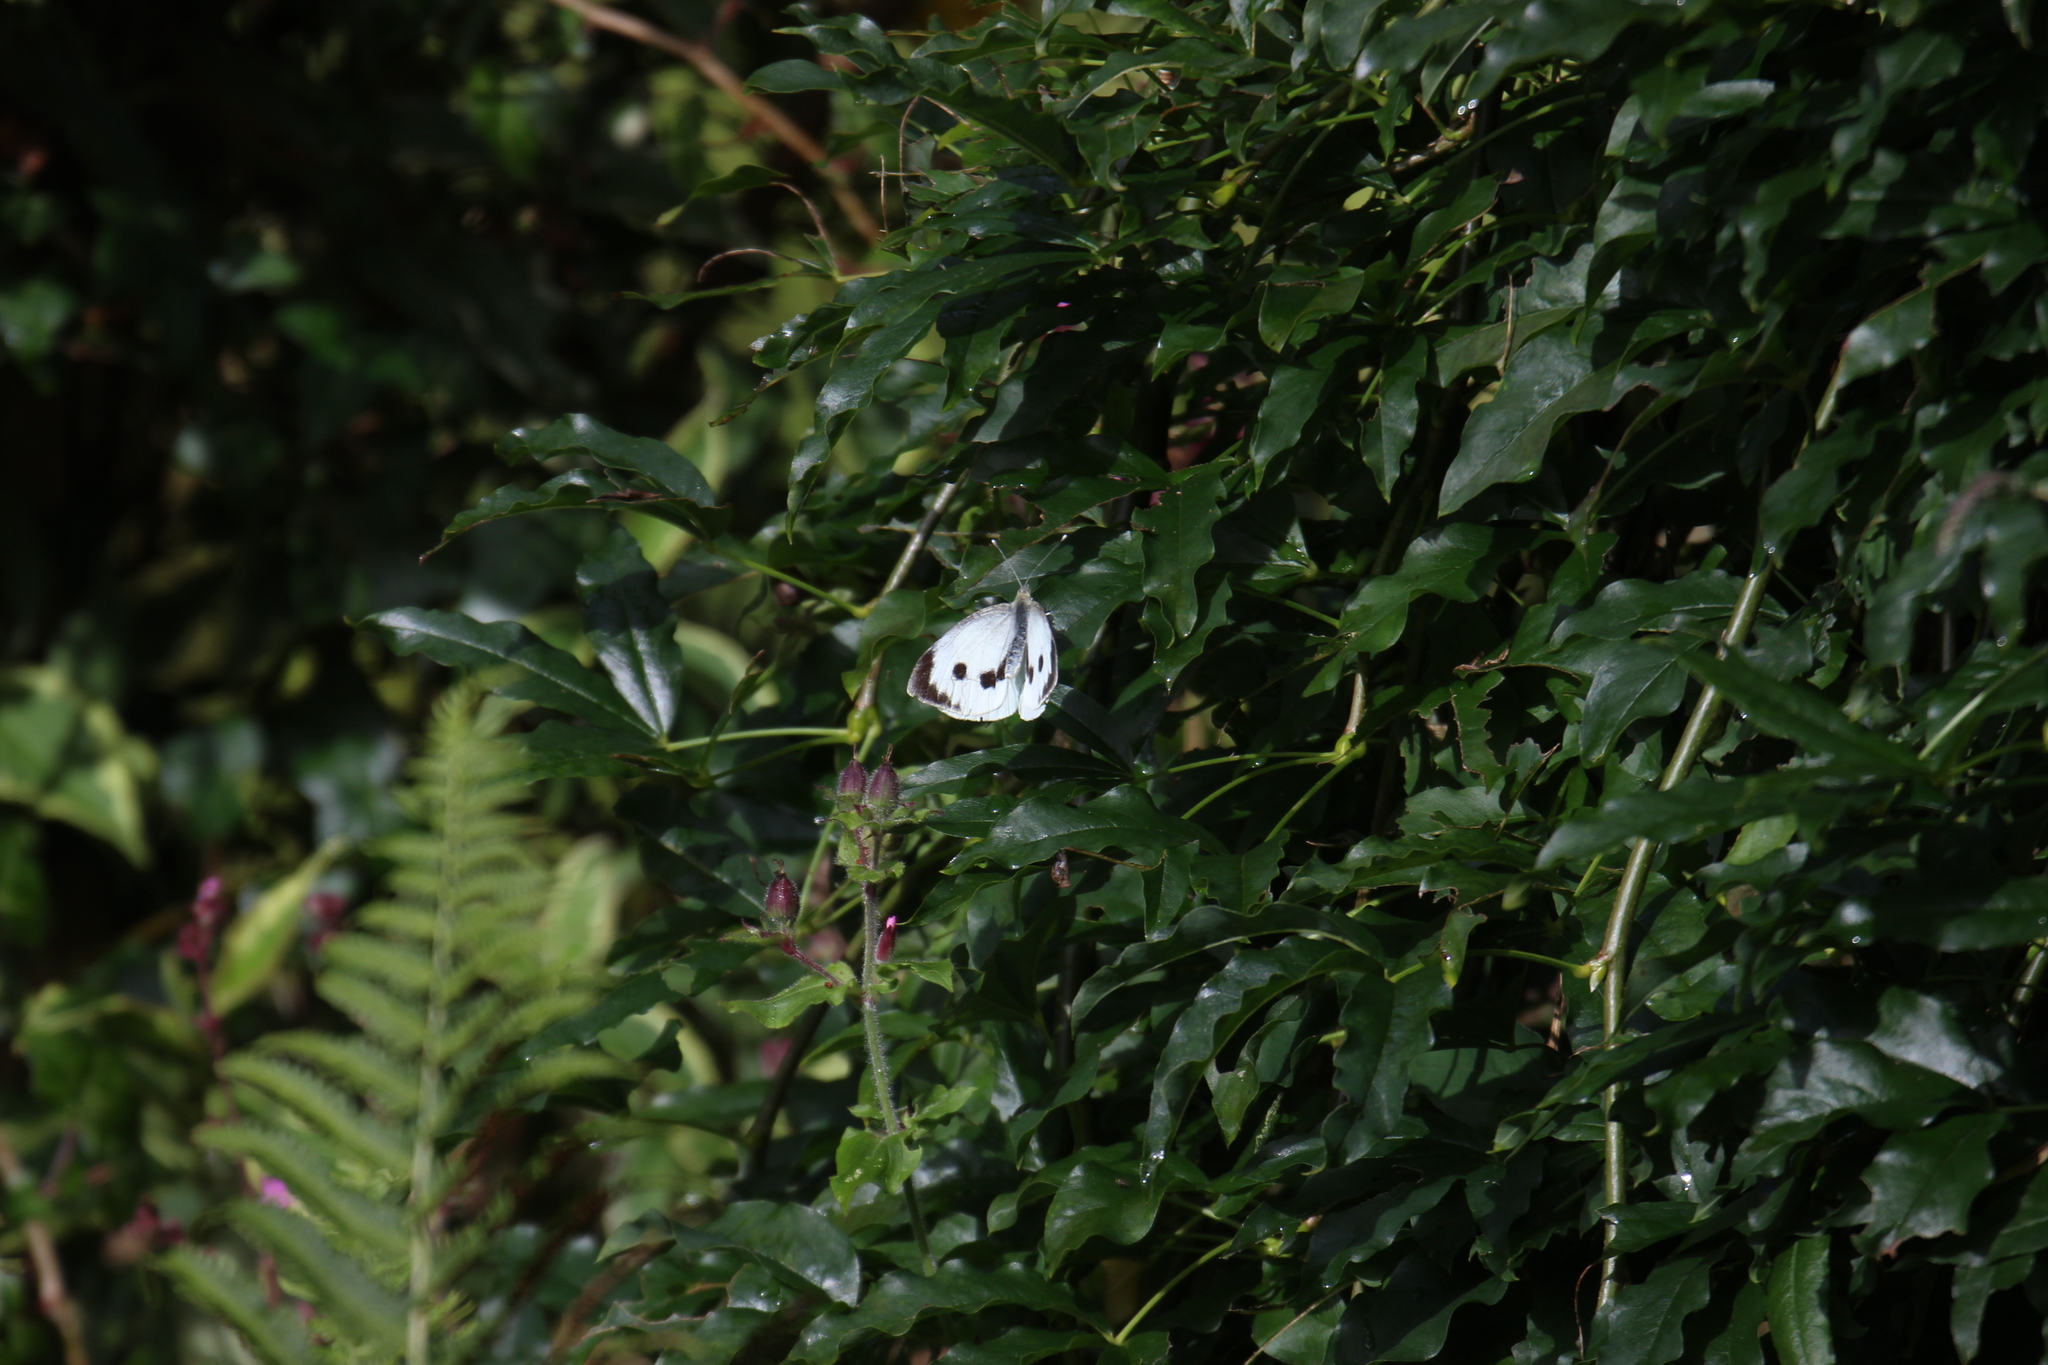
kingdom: Animalia
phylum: Arthropoda
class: Insecta
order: Lepidoptera
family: Pieridae
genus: Pieris
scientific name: Pieris brassicae
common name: Large white
